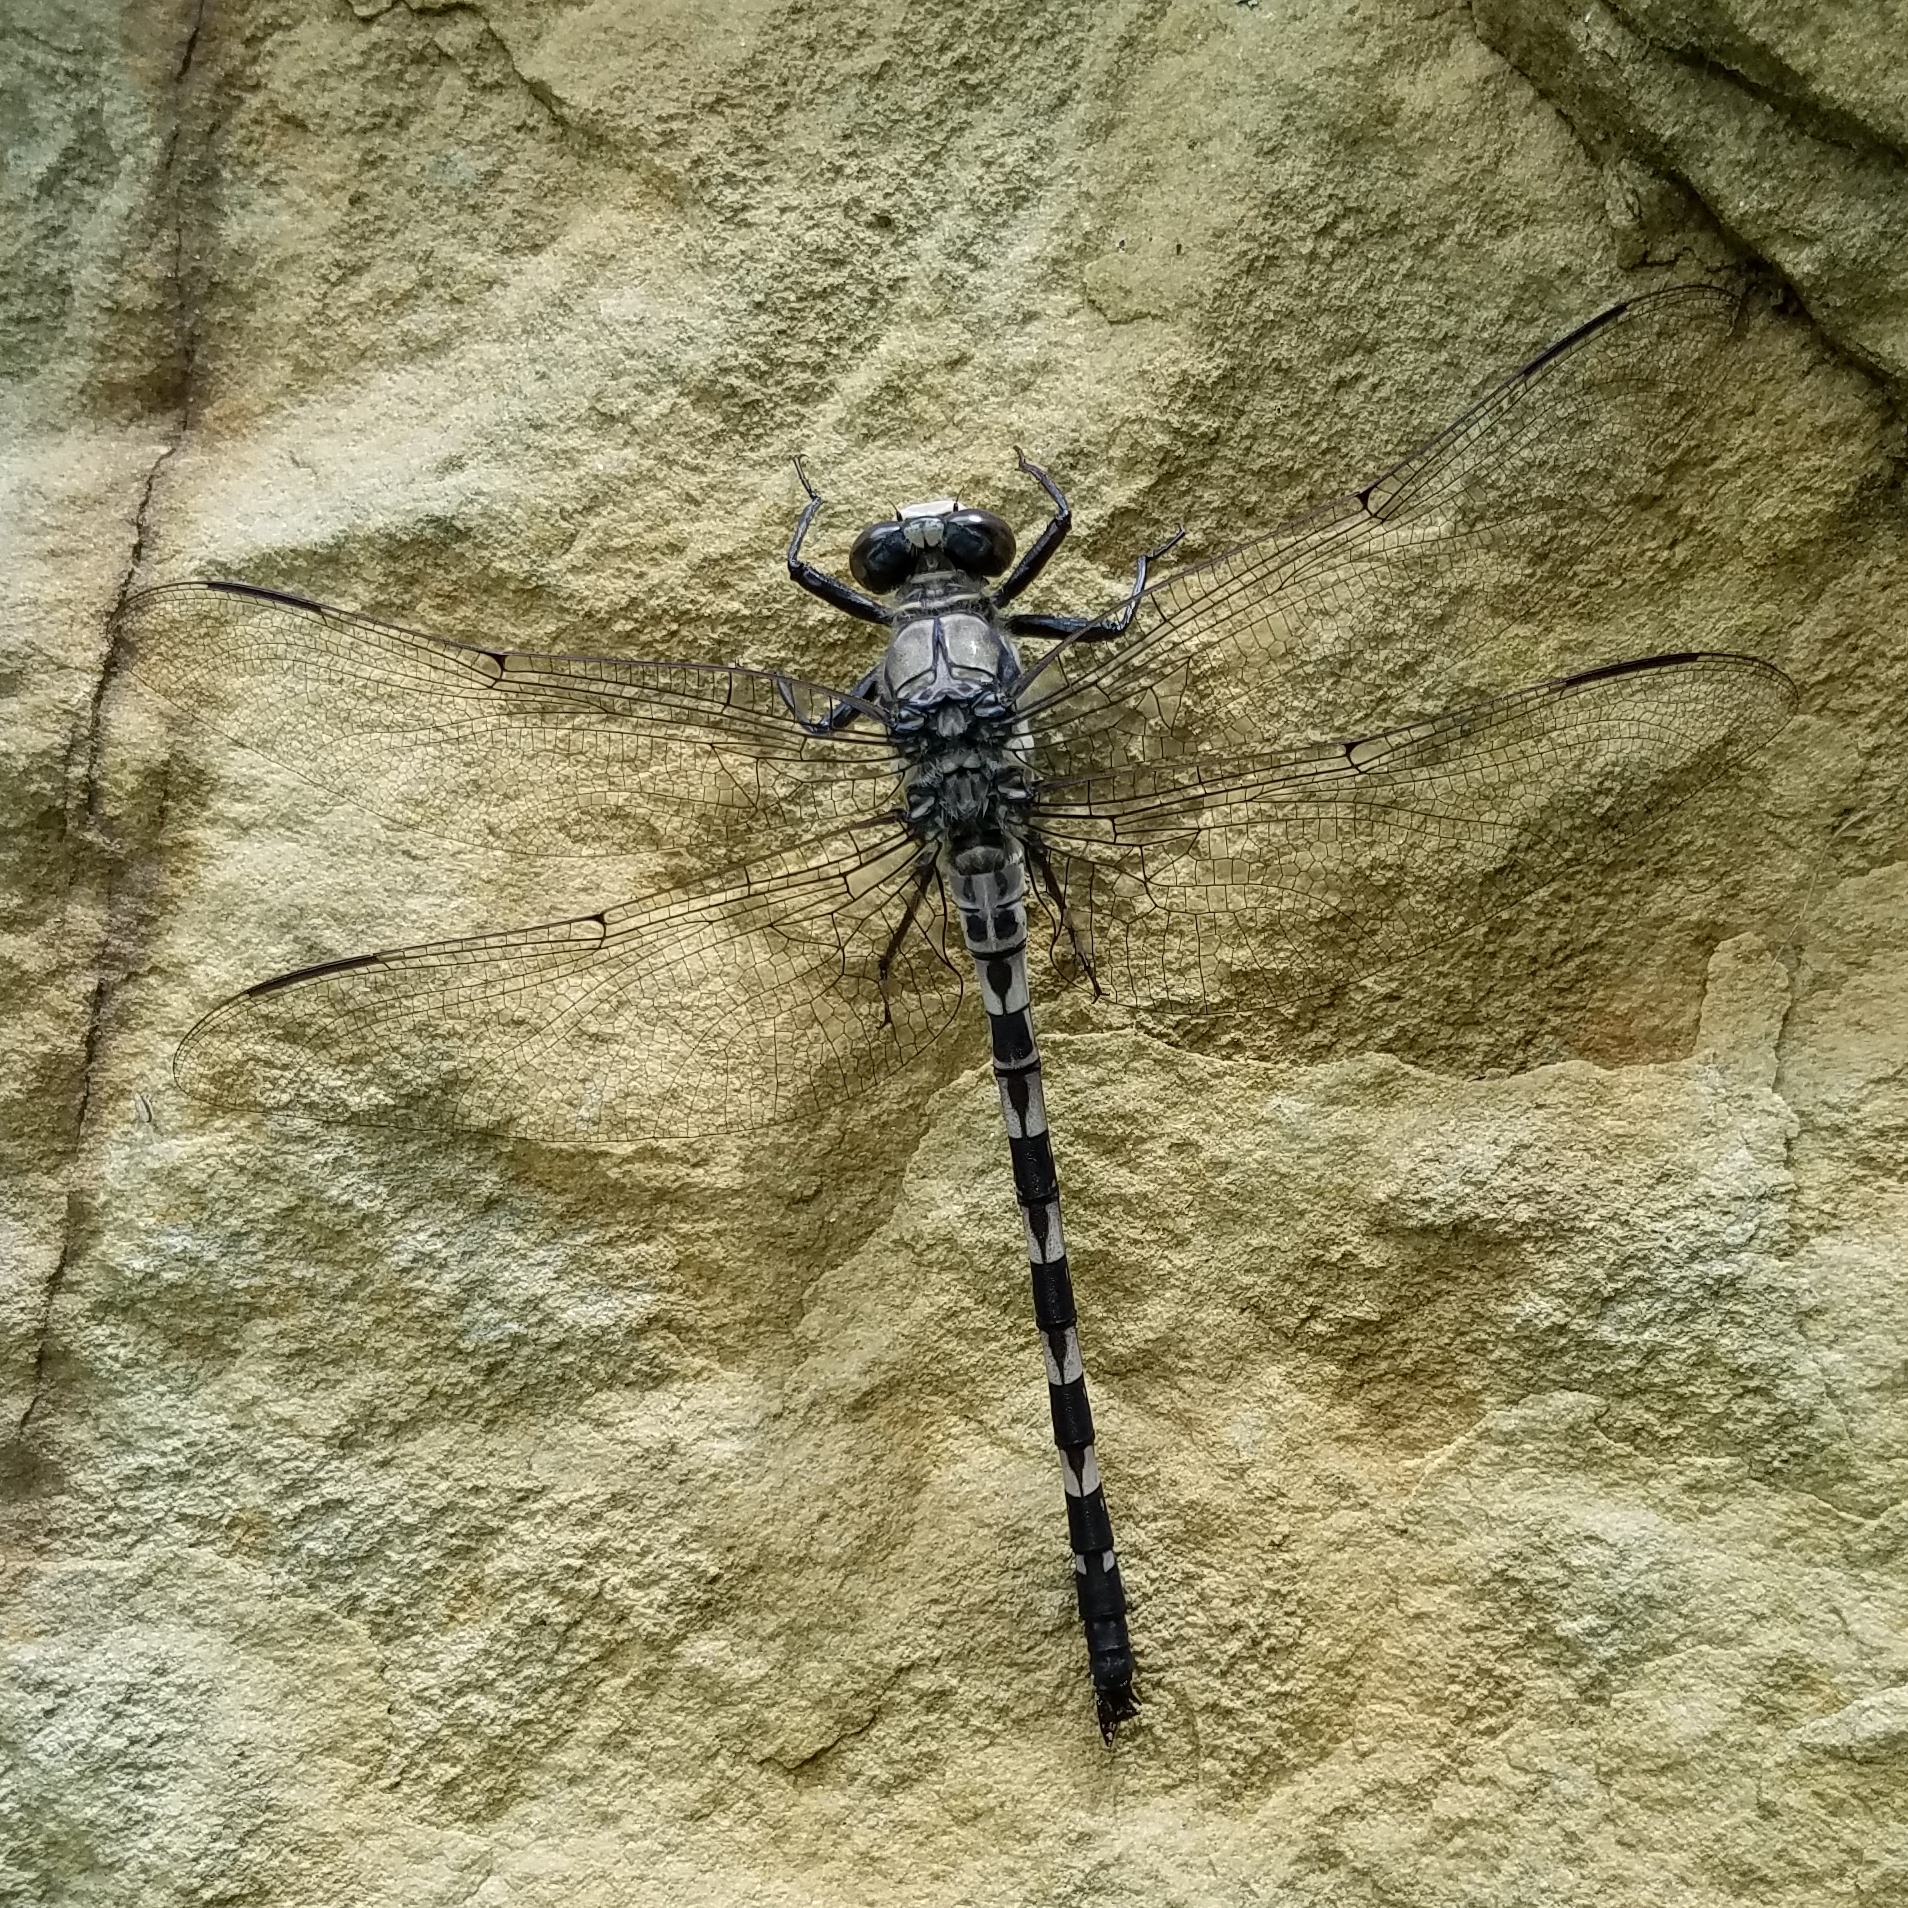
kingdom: Animalia
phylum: Arthropoda
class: Insecta
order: Odonata
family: Petaluridae
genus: Tachopteryx
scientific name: Tachopteryx thoreyi
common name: Gray petaltail
